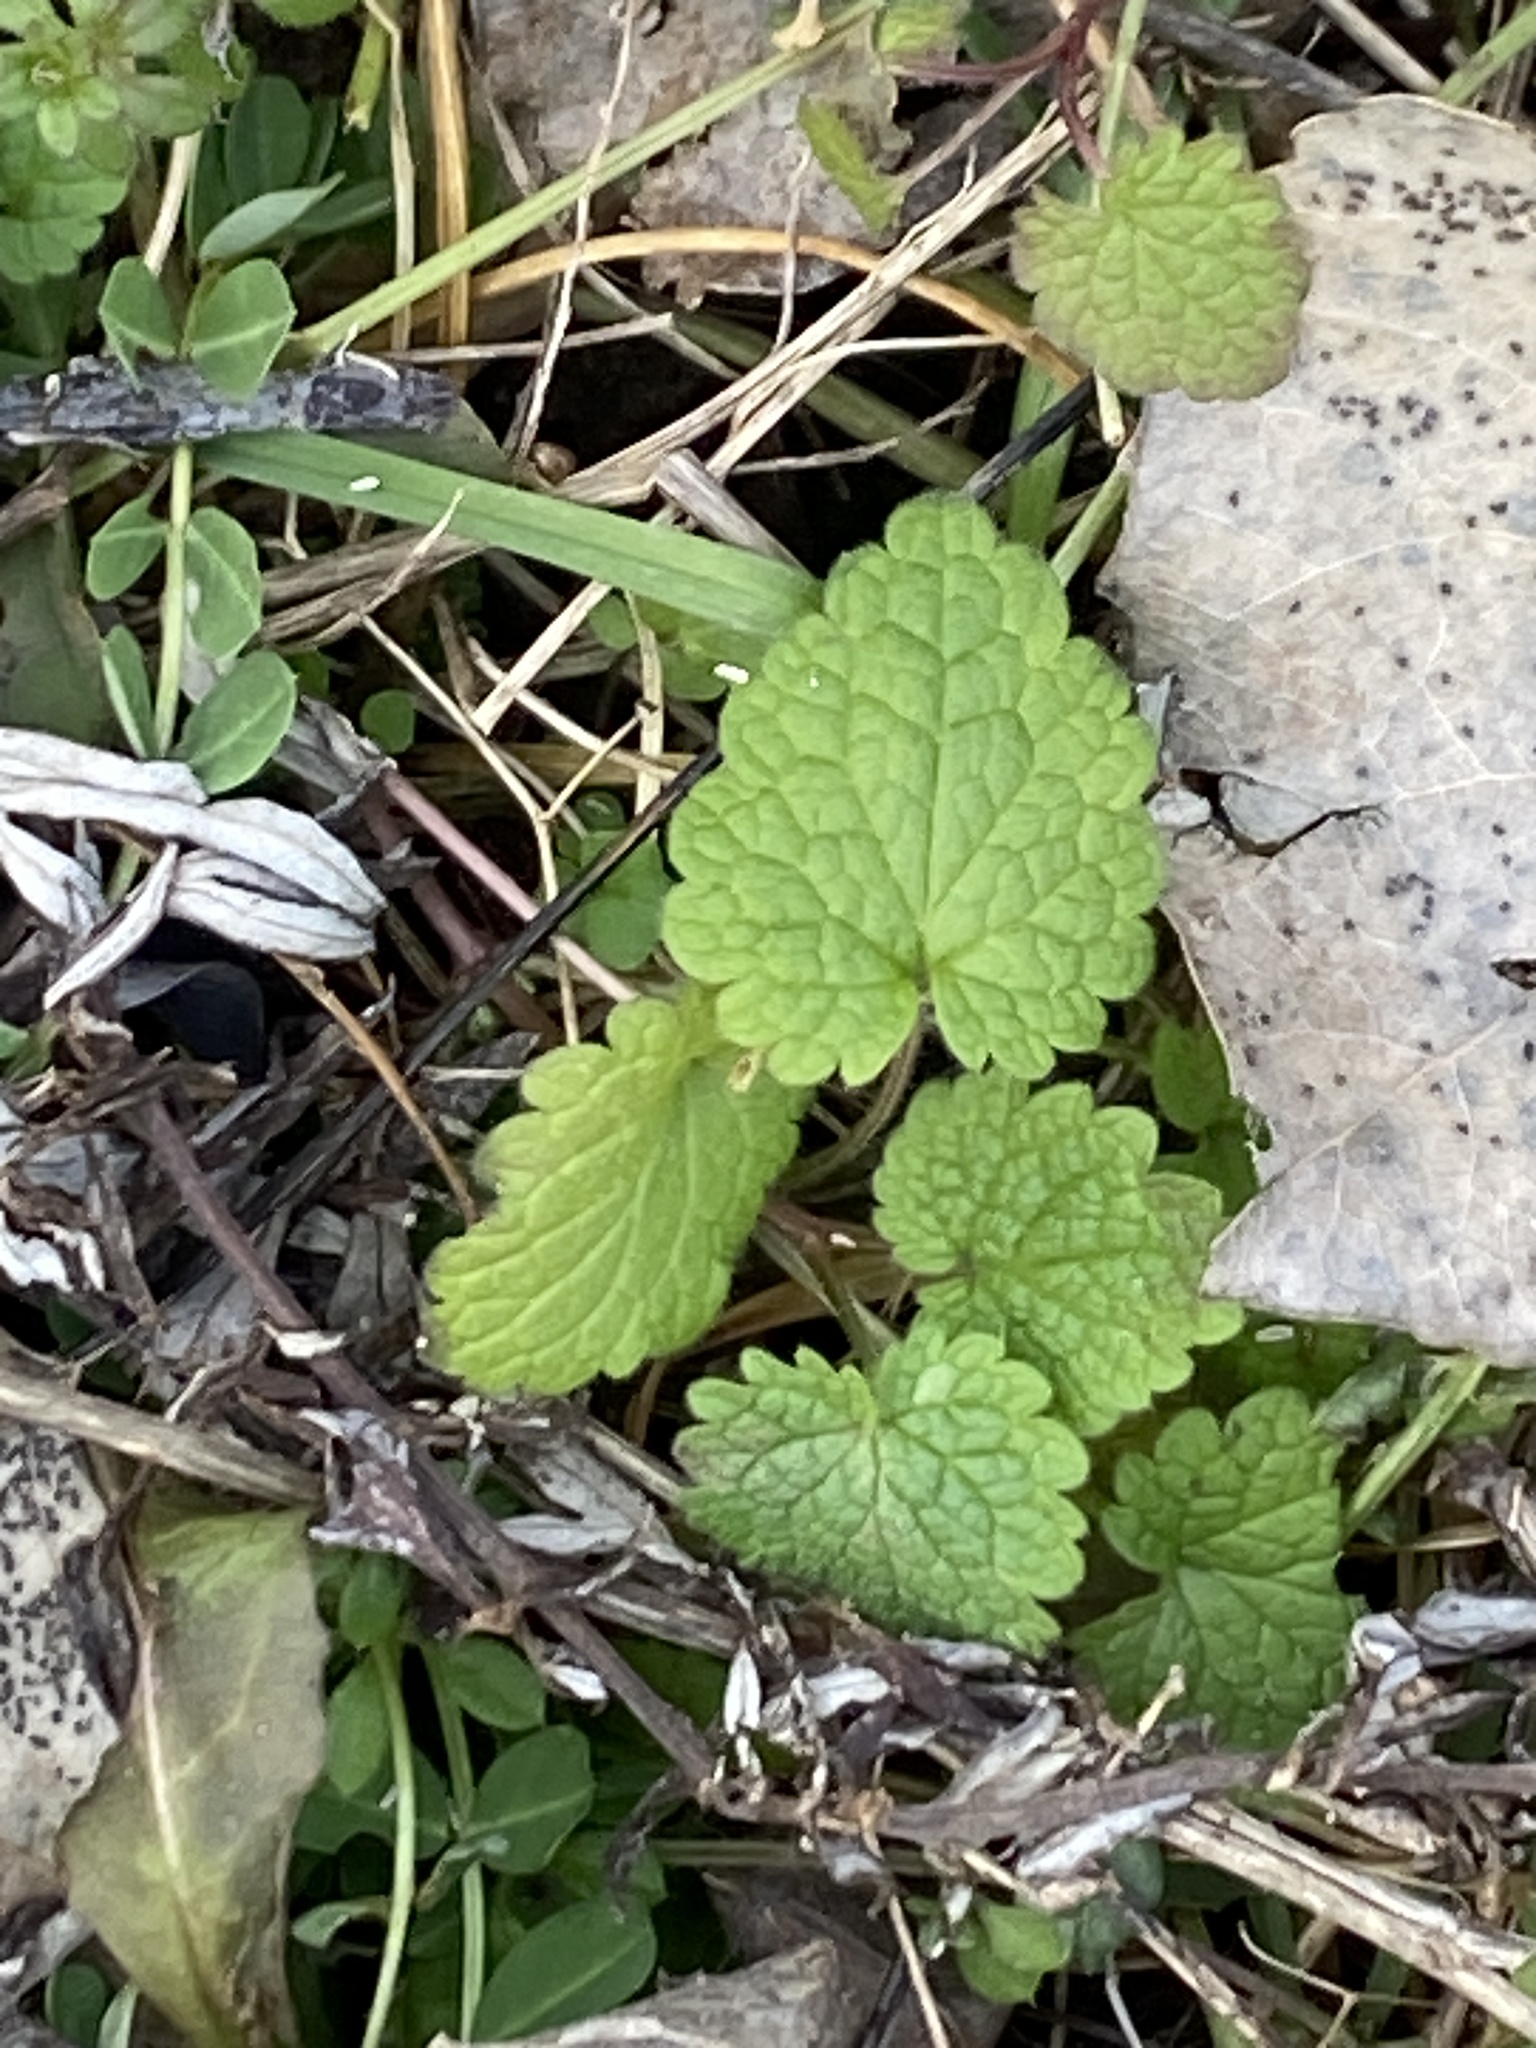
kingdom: Plantae
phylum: Tracheophyta
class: Magnoliopsida
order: Lamiales
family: Lamiaceae
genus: Lamium
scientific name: Lamium purpureum
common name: Red dead-nettle
